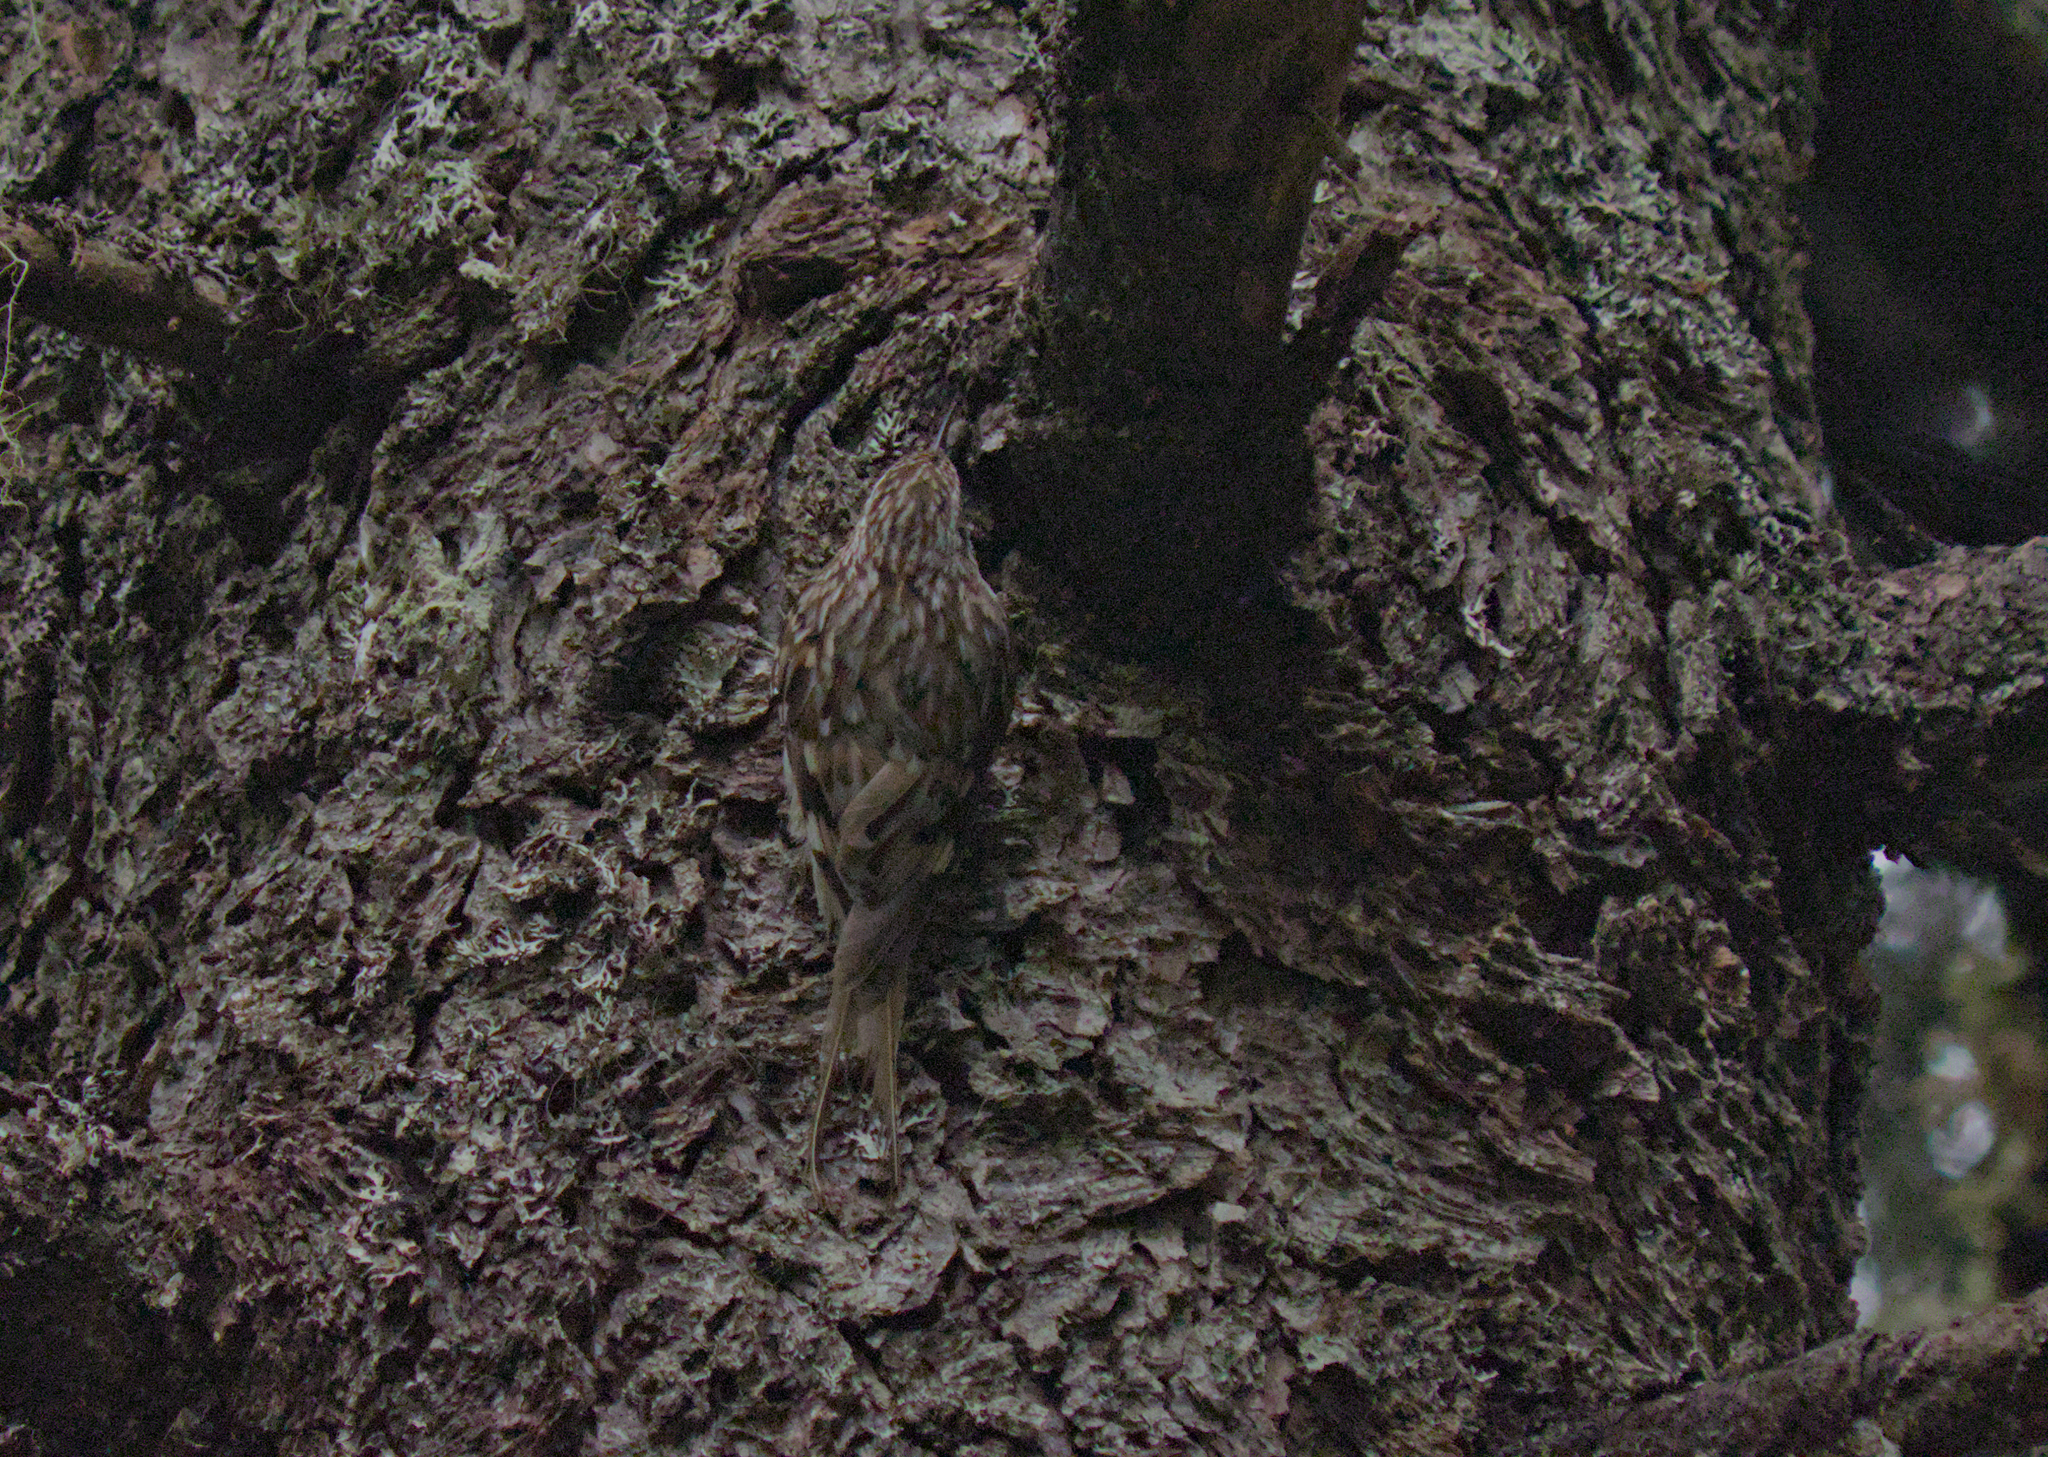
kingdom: Animalia
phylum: Chordata
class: Aves
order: Passeriformes
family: Certhiidae
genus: Certhia
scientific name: Certhia americana
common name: Brown creeper
